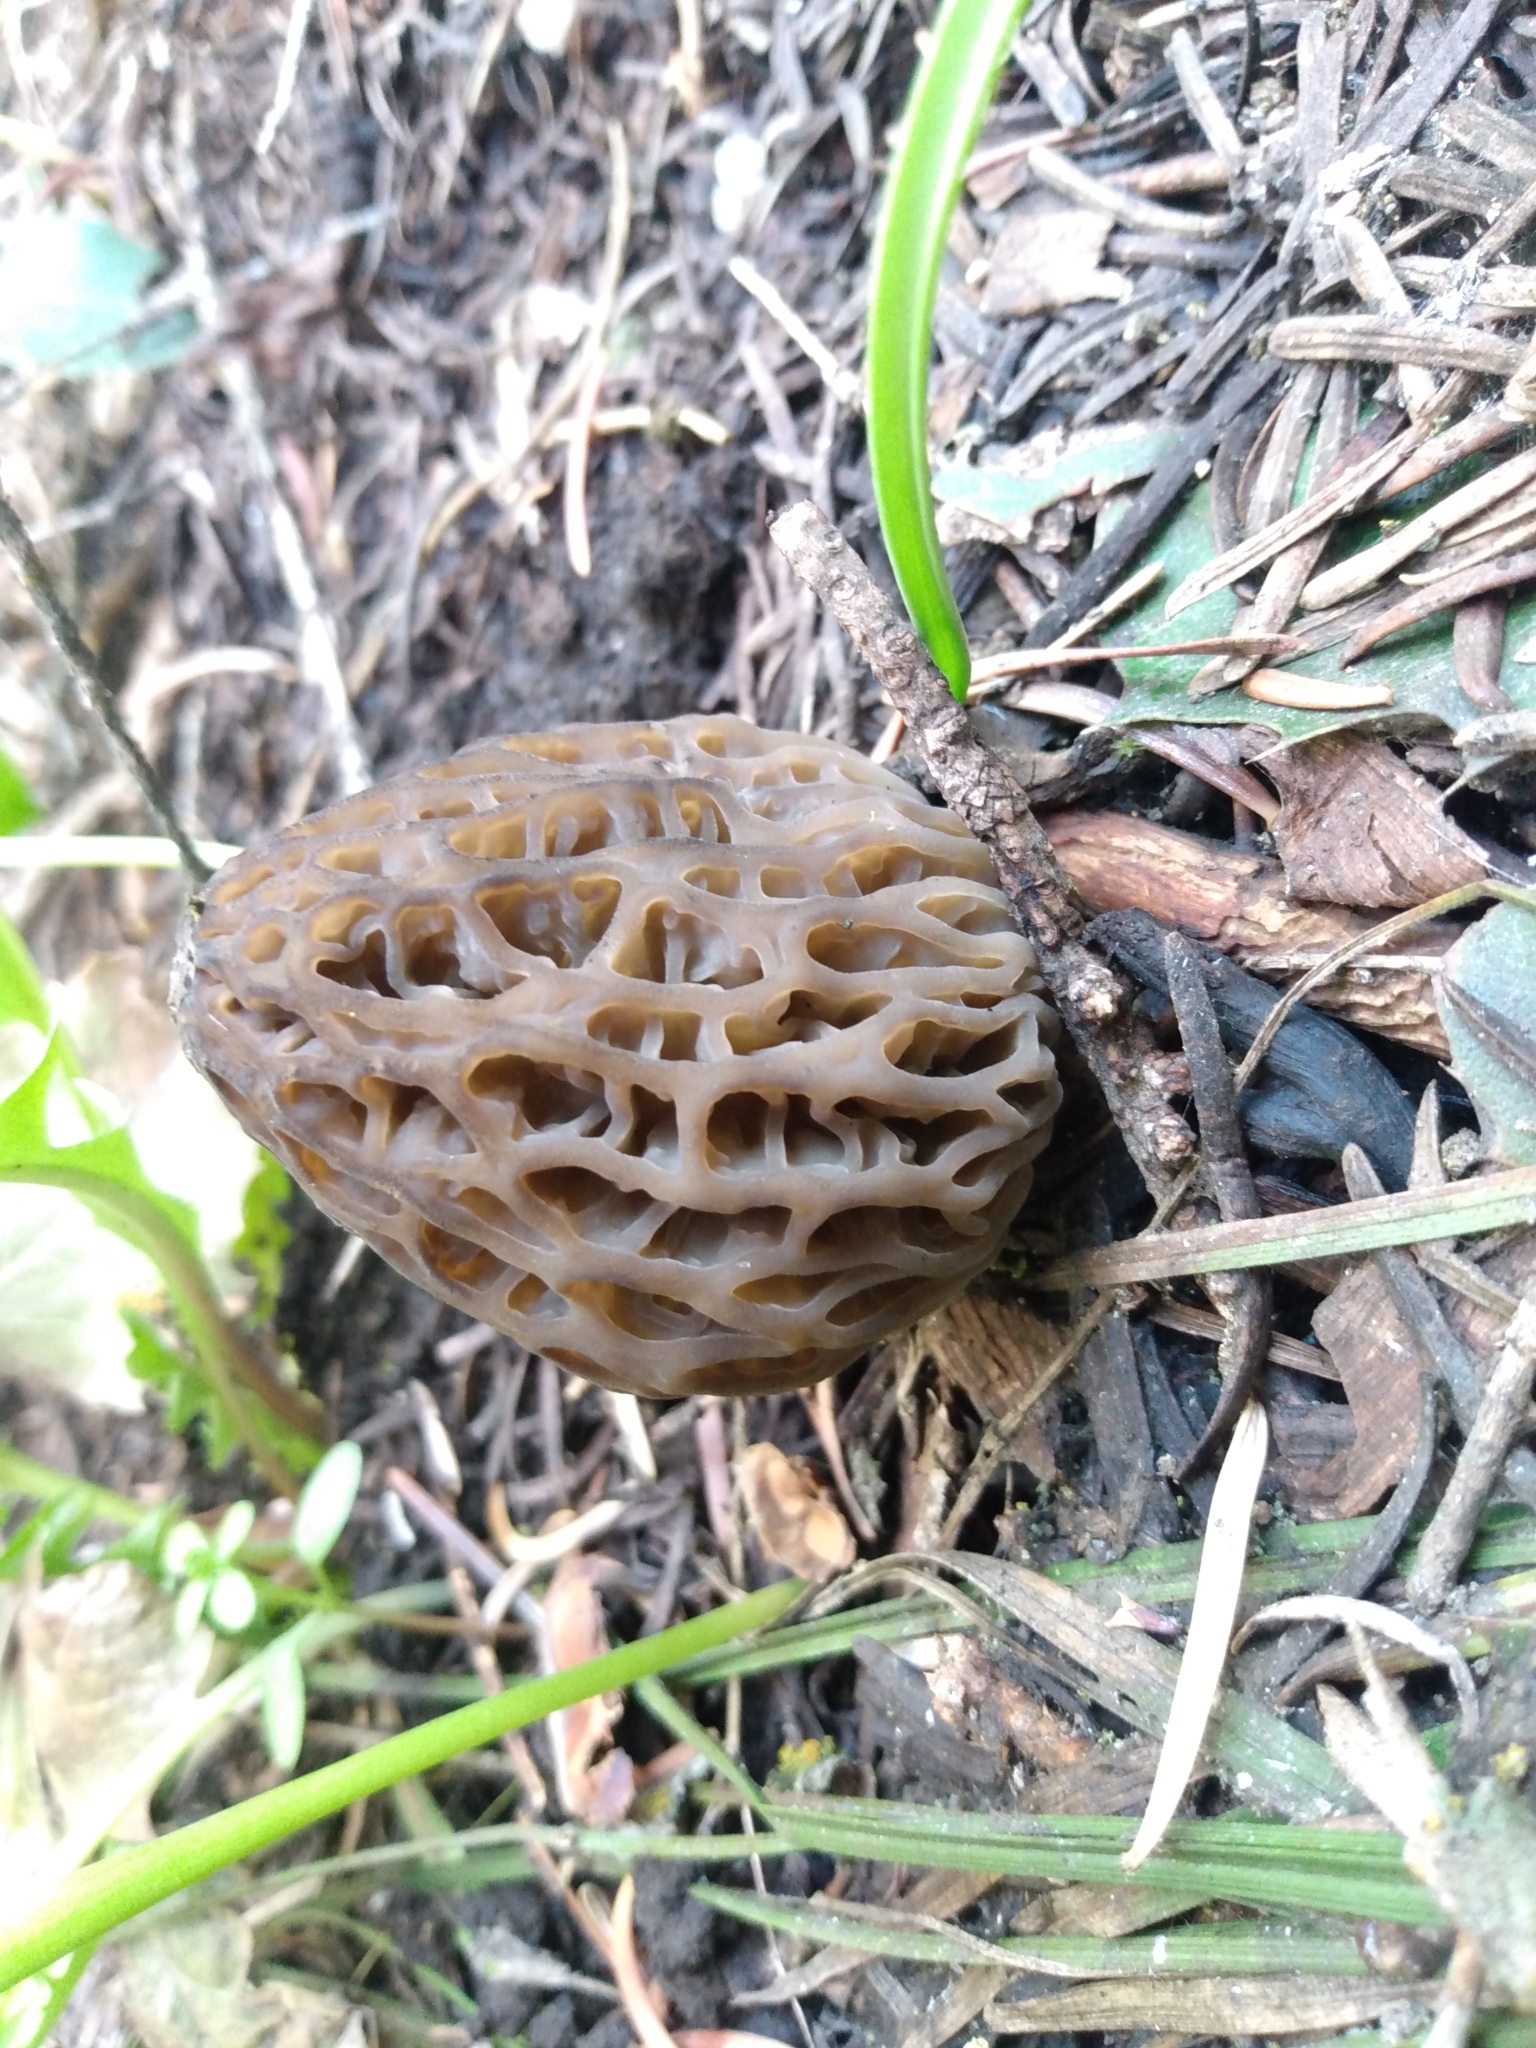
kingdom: Fungi
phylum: Ascomycota
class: Pezizomycetes
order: Pezizales
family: Morchellaceae
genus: Morchella
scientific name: Morchella snyderi
